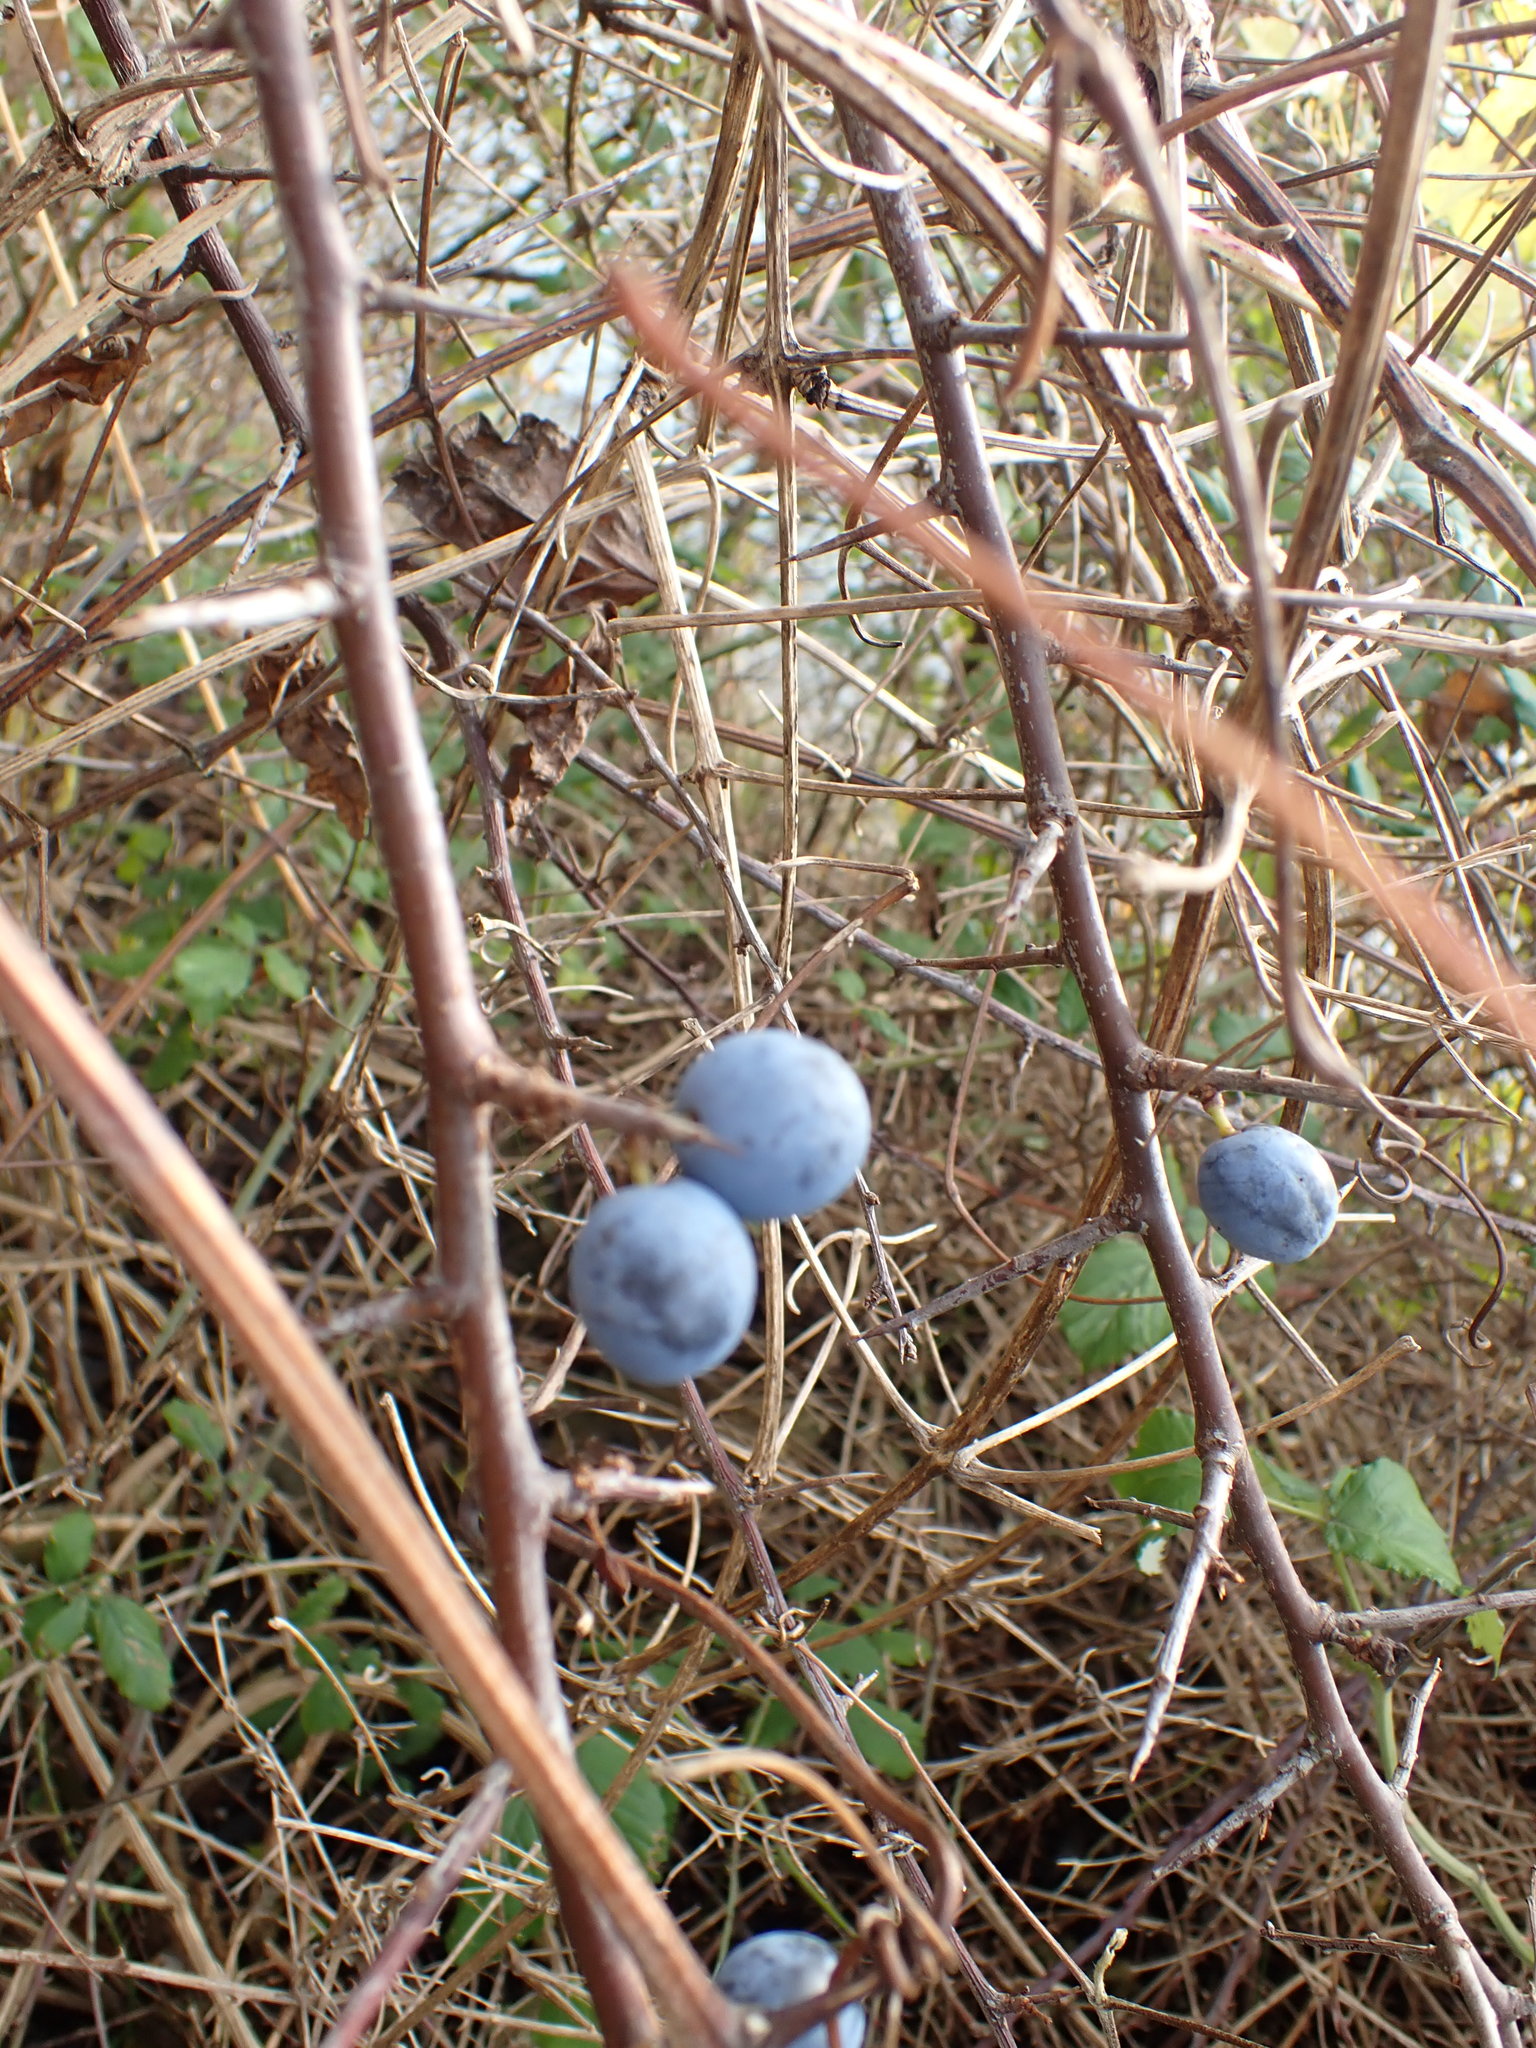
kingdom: Plantae
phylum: Tracheophyta
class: Magnoliopsida
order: Rosales
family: Rosaceae
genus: Prunus
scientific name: Prunus spinosa
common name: Blackthorn
